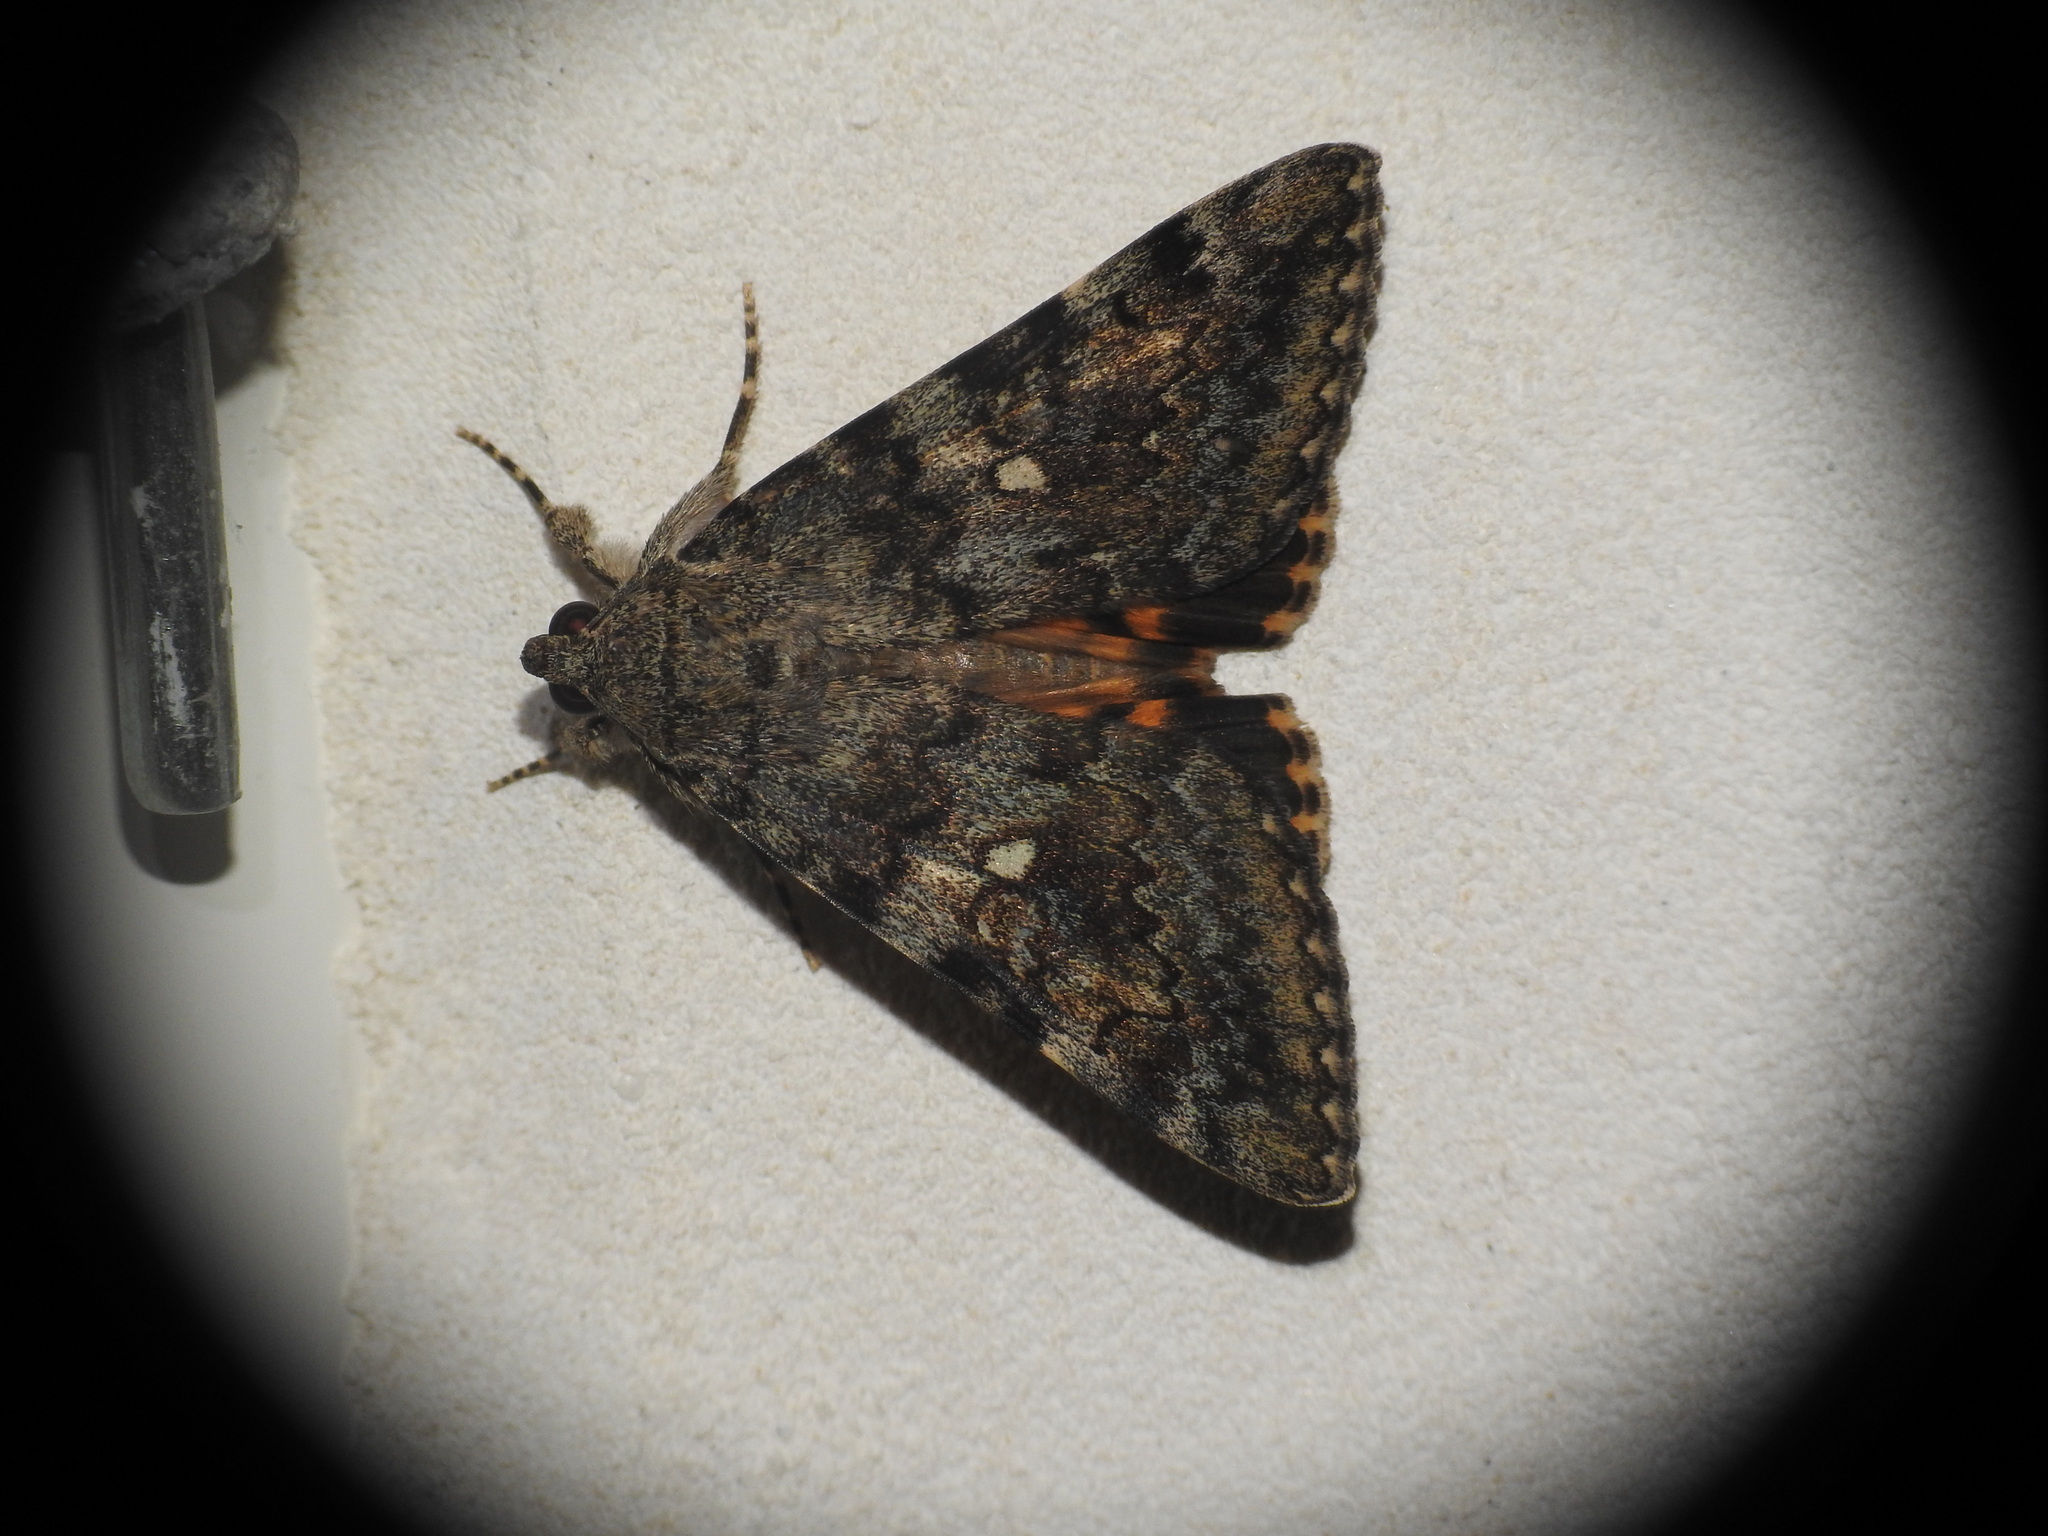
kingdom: Animalia
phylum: Arthropoda
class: Insecta
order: Lepidoptera
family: Erebidae
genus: Catocala
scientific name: Catocala nymphaea
